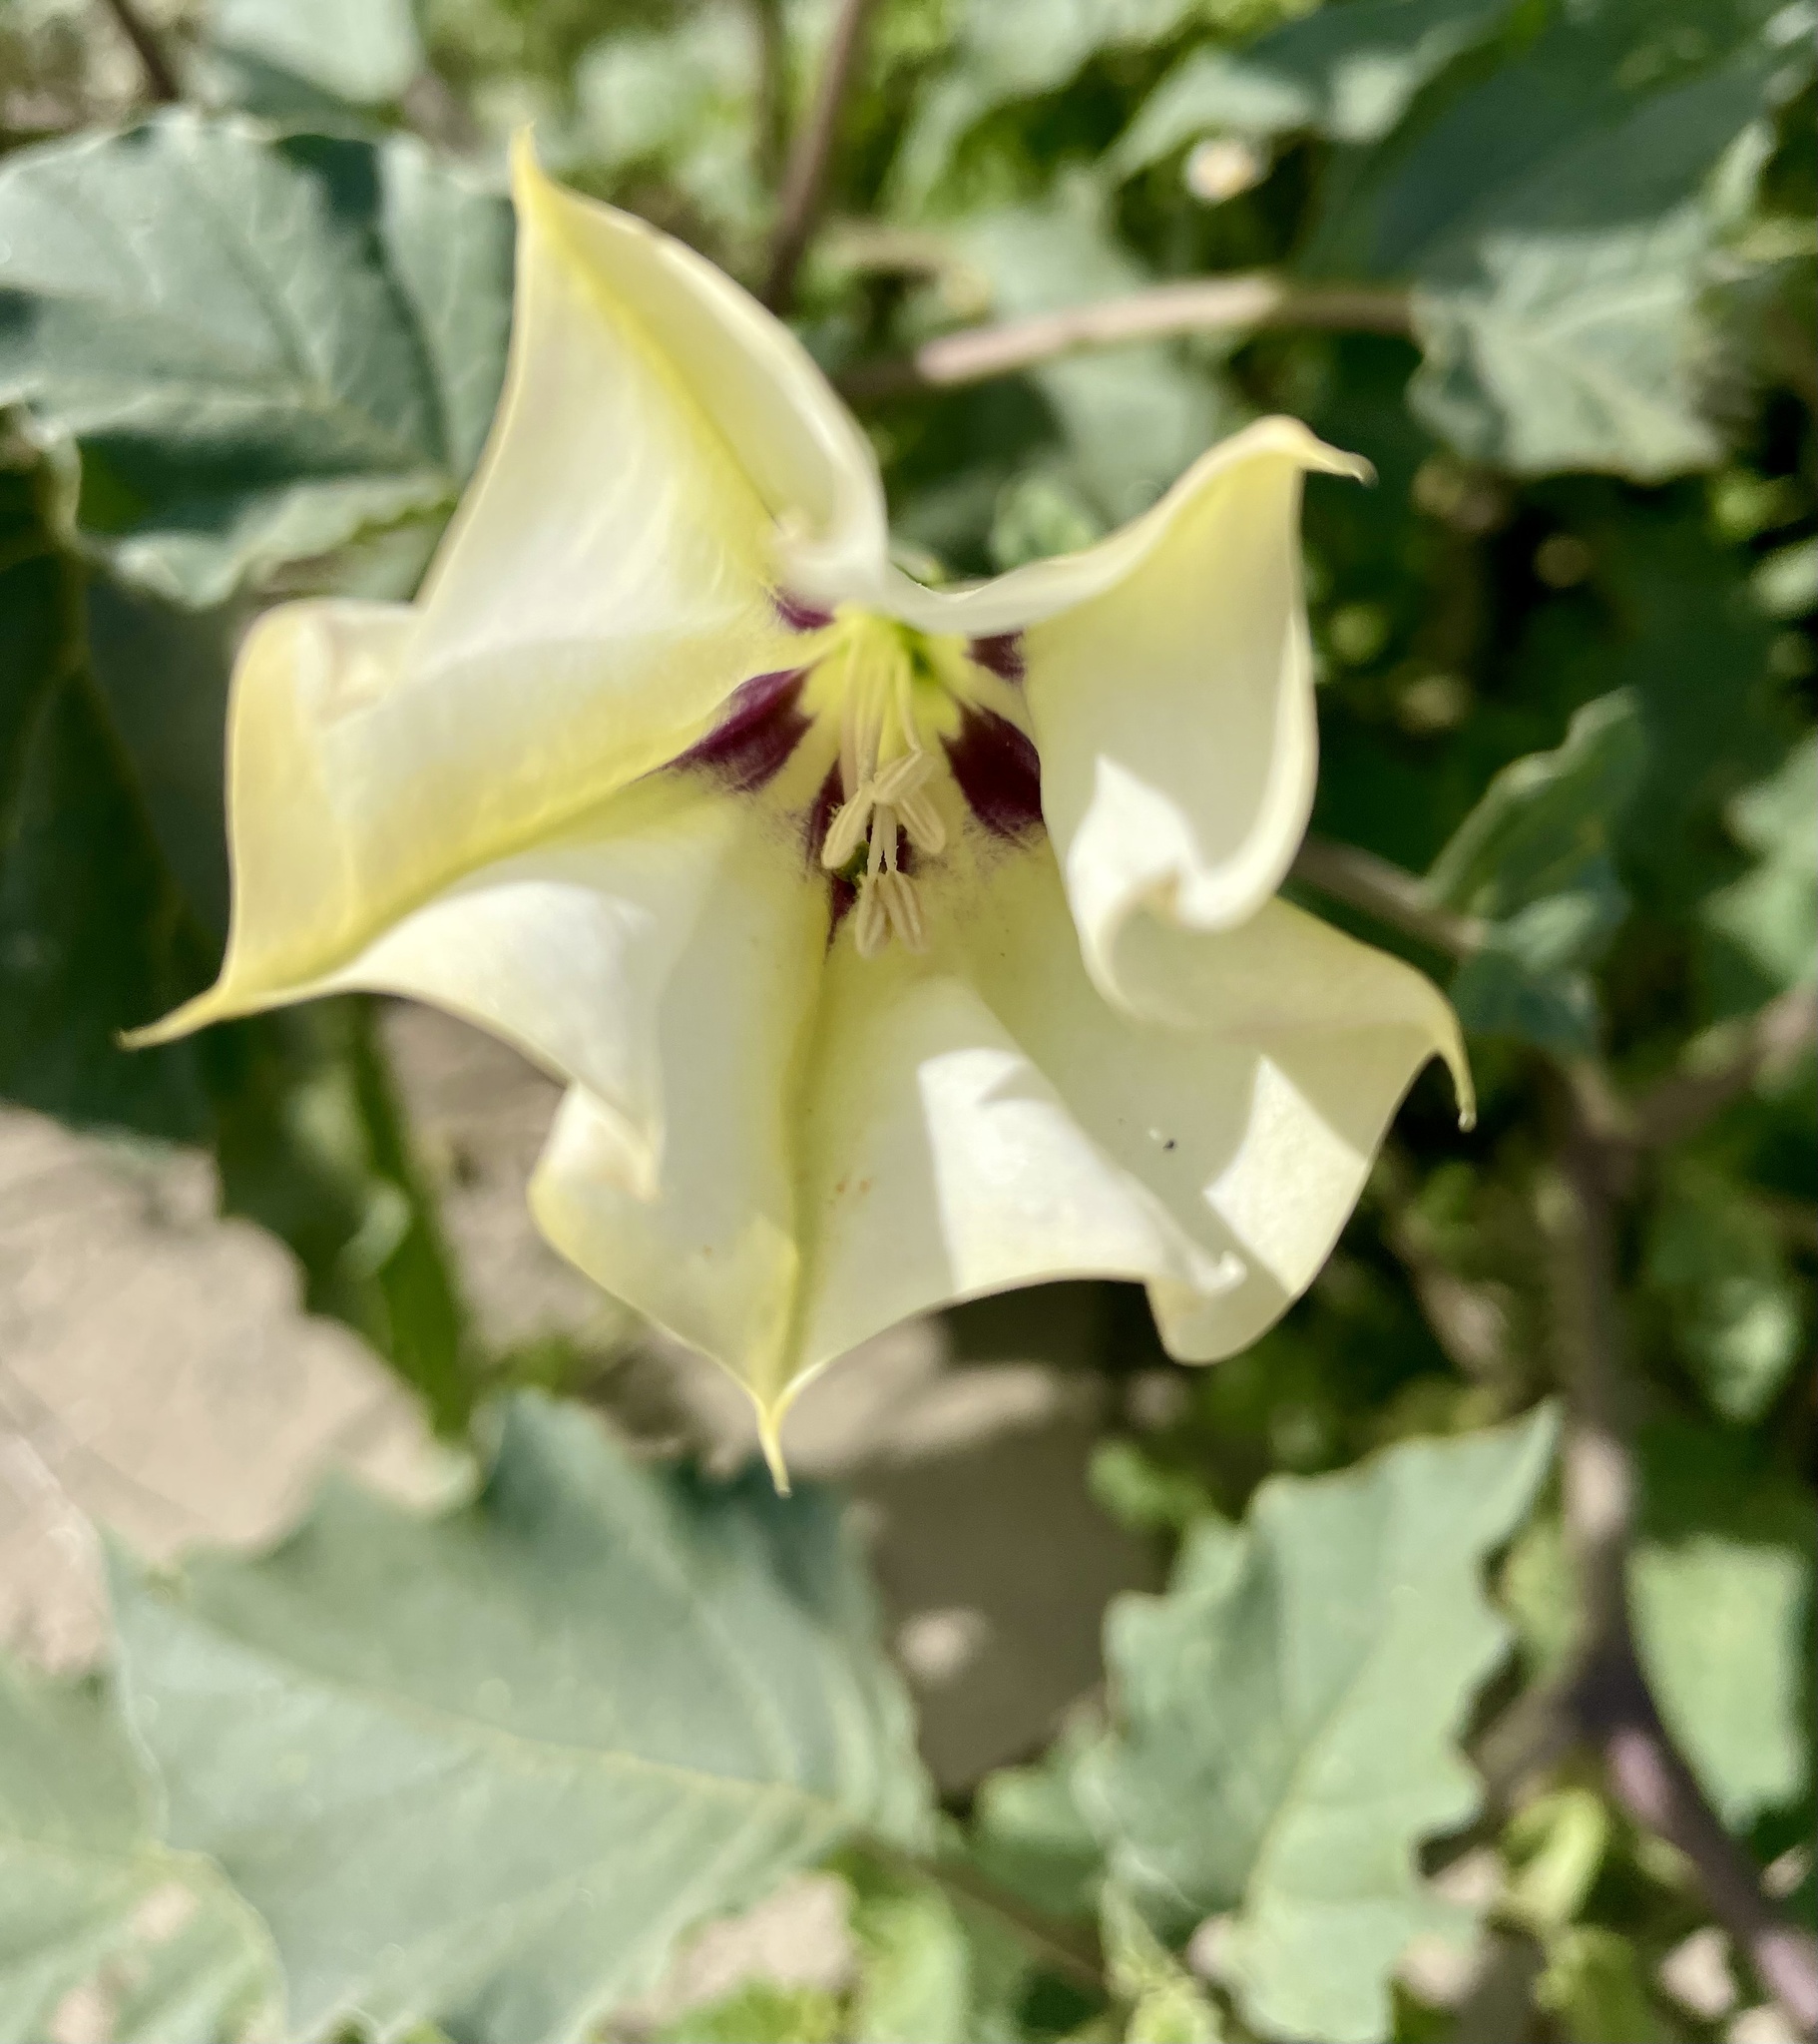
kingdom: Plantae
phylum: Tracheophyta
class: Magnoliopsida
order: Solanales
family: Solanaceae
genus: Datura
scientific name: Datura discolor
